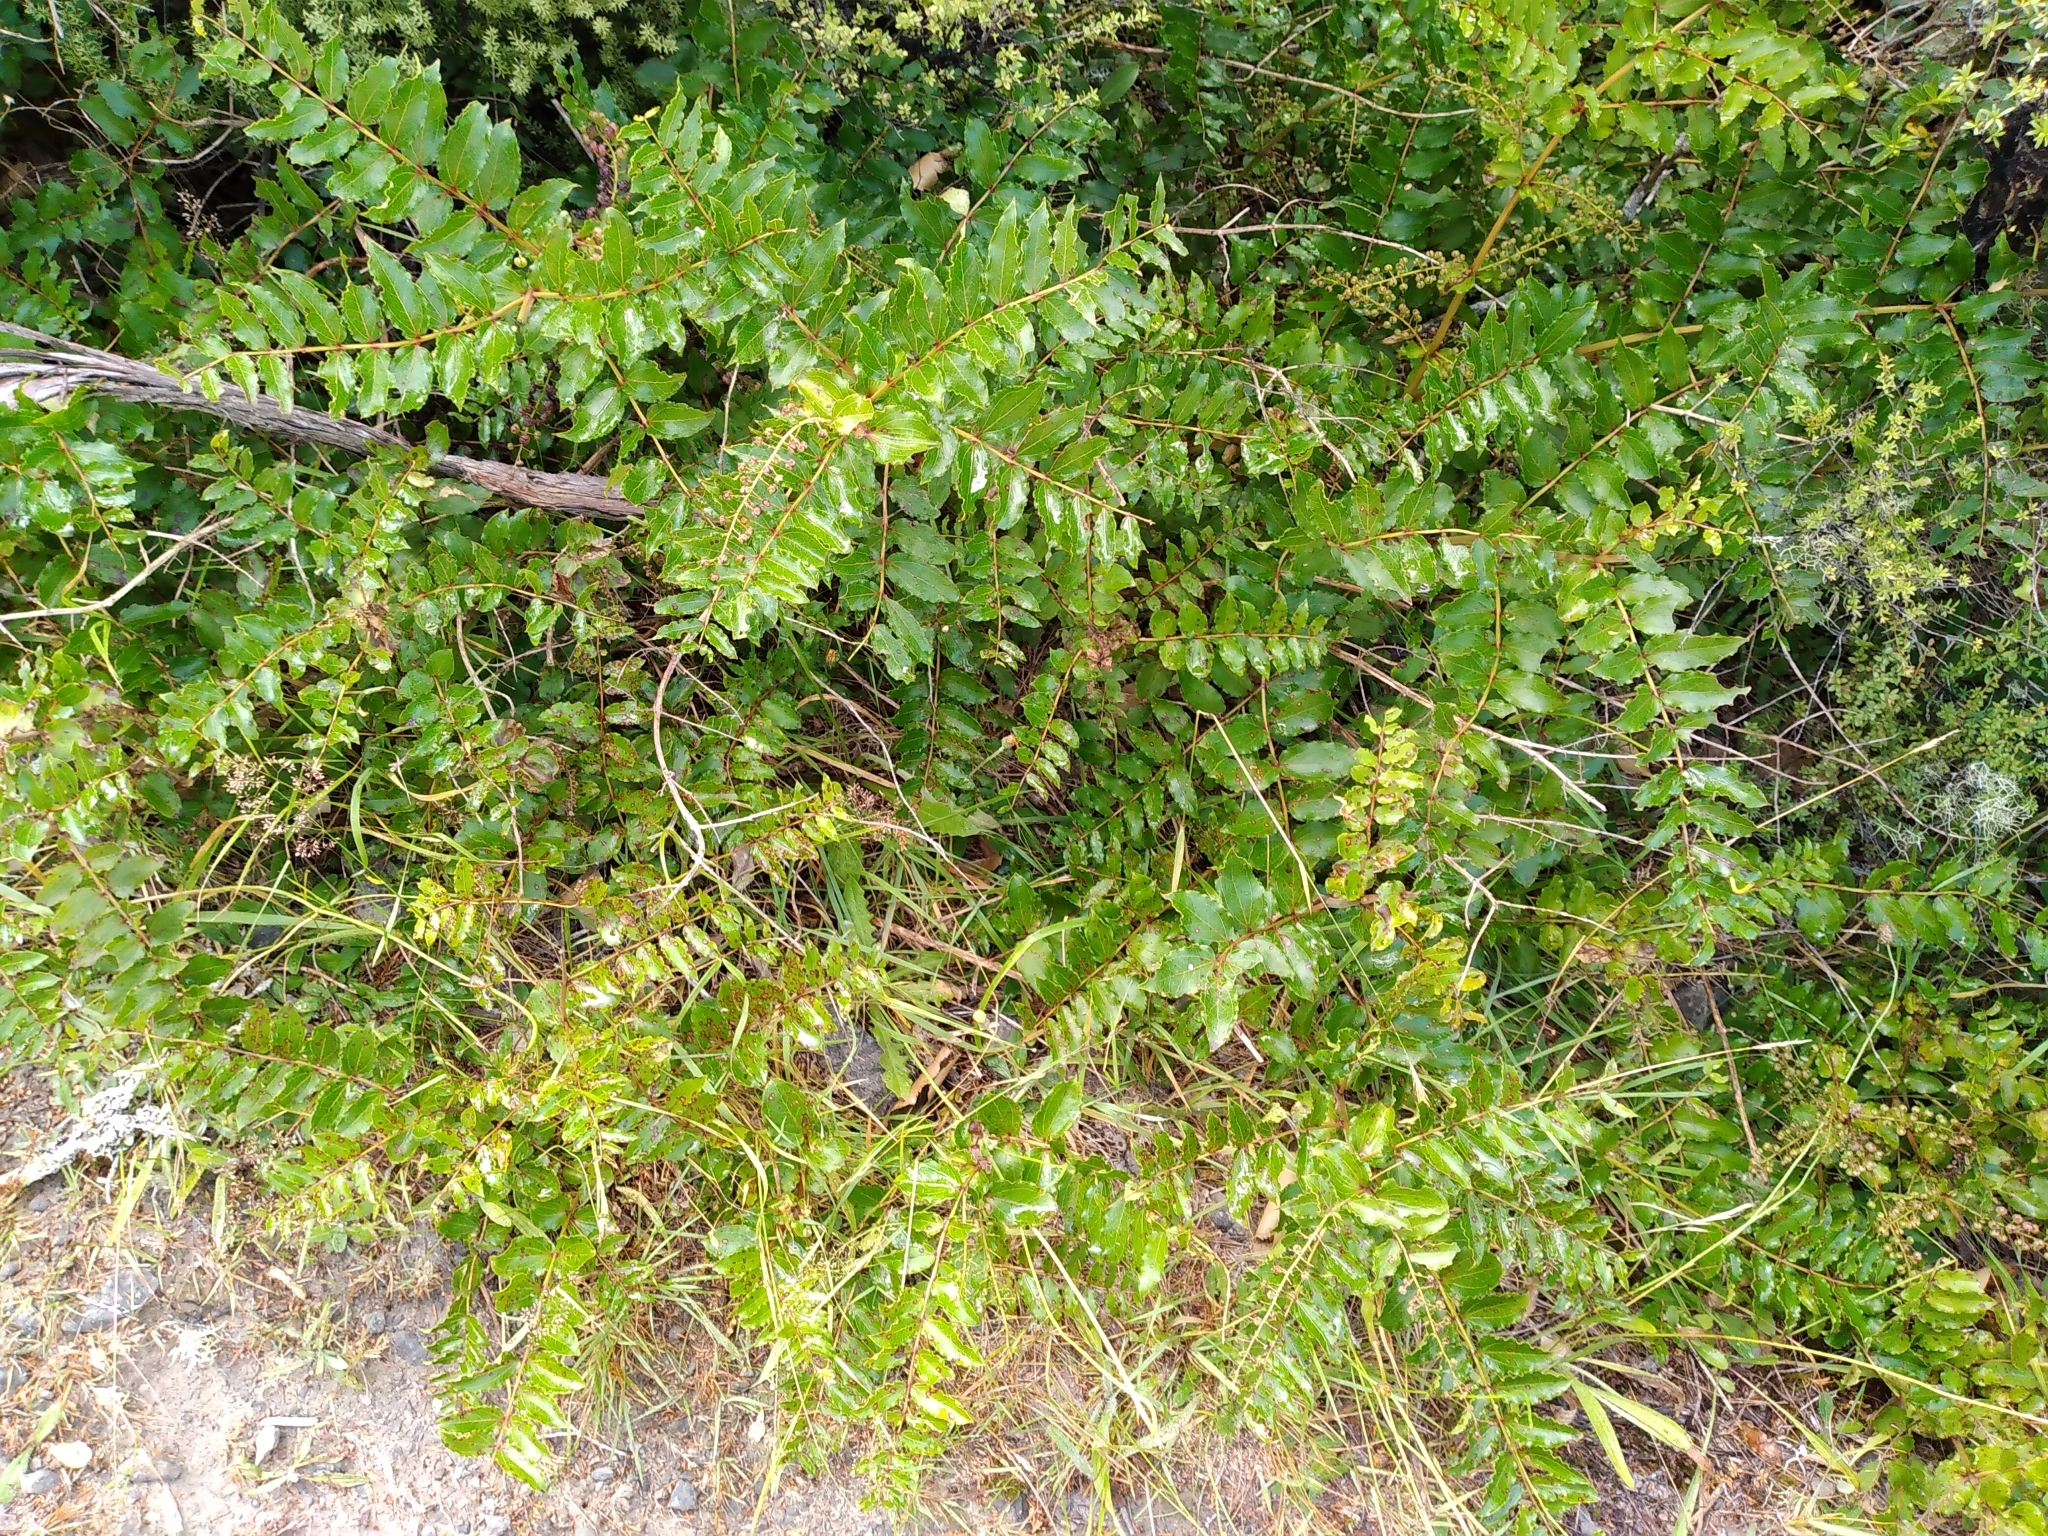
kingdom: Plantae
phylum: Tracheophyta
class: Magnoliopsida
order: Cucurbitales
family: Coriariaceae
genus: Coriaria
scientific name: Coriaria sarmentosa
